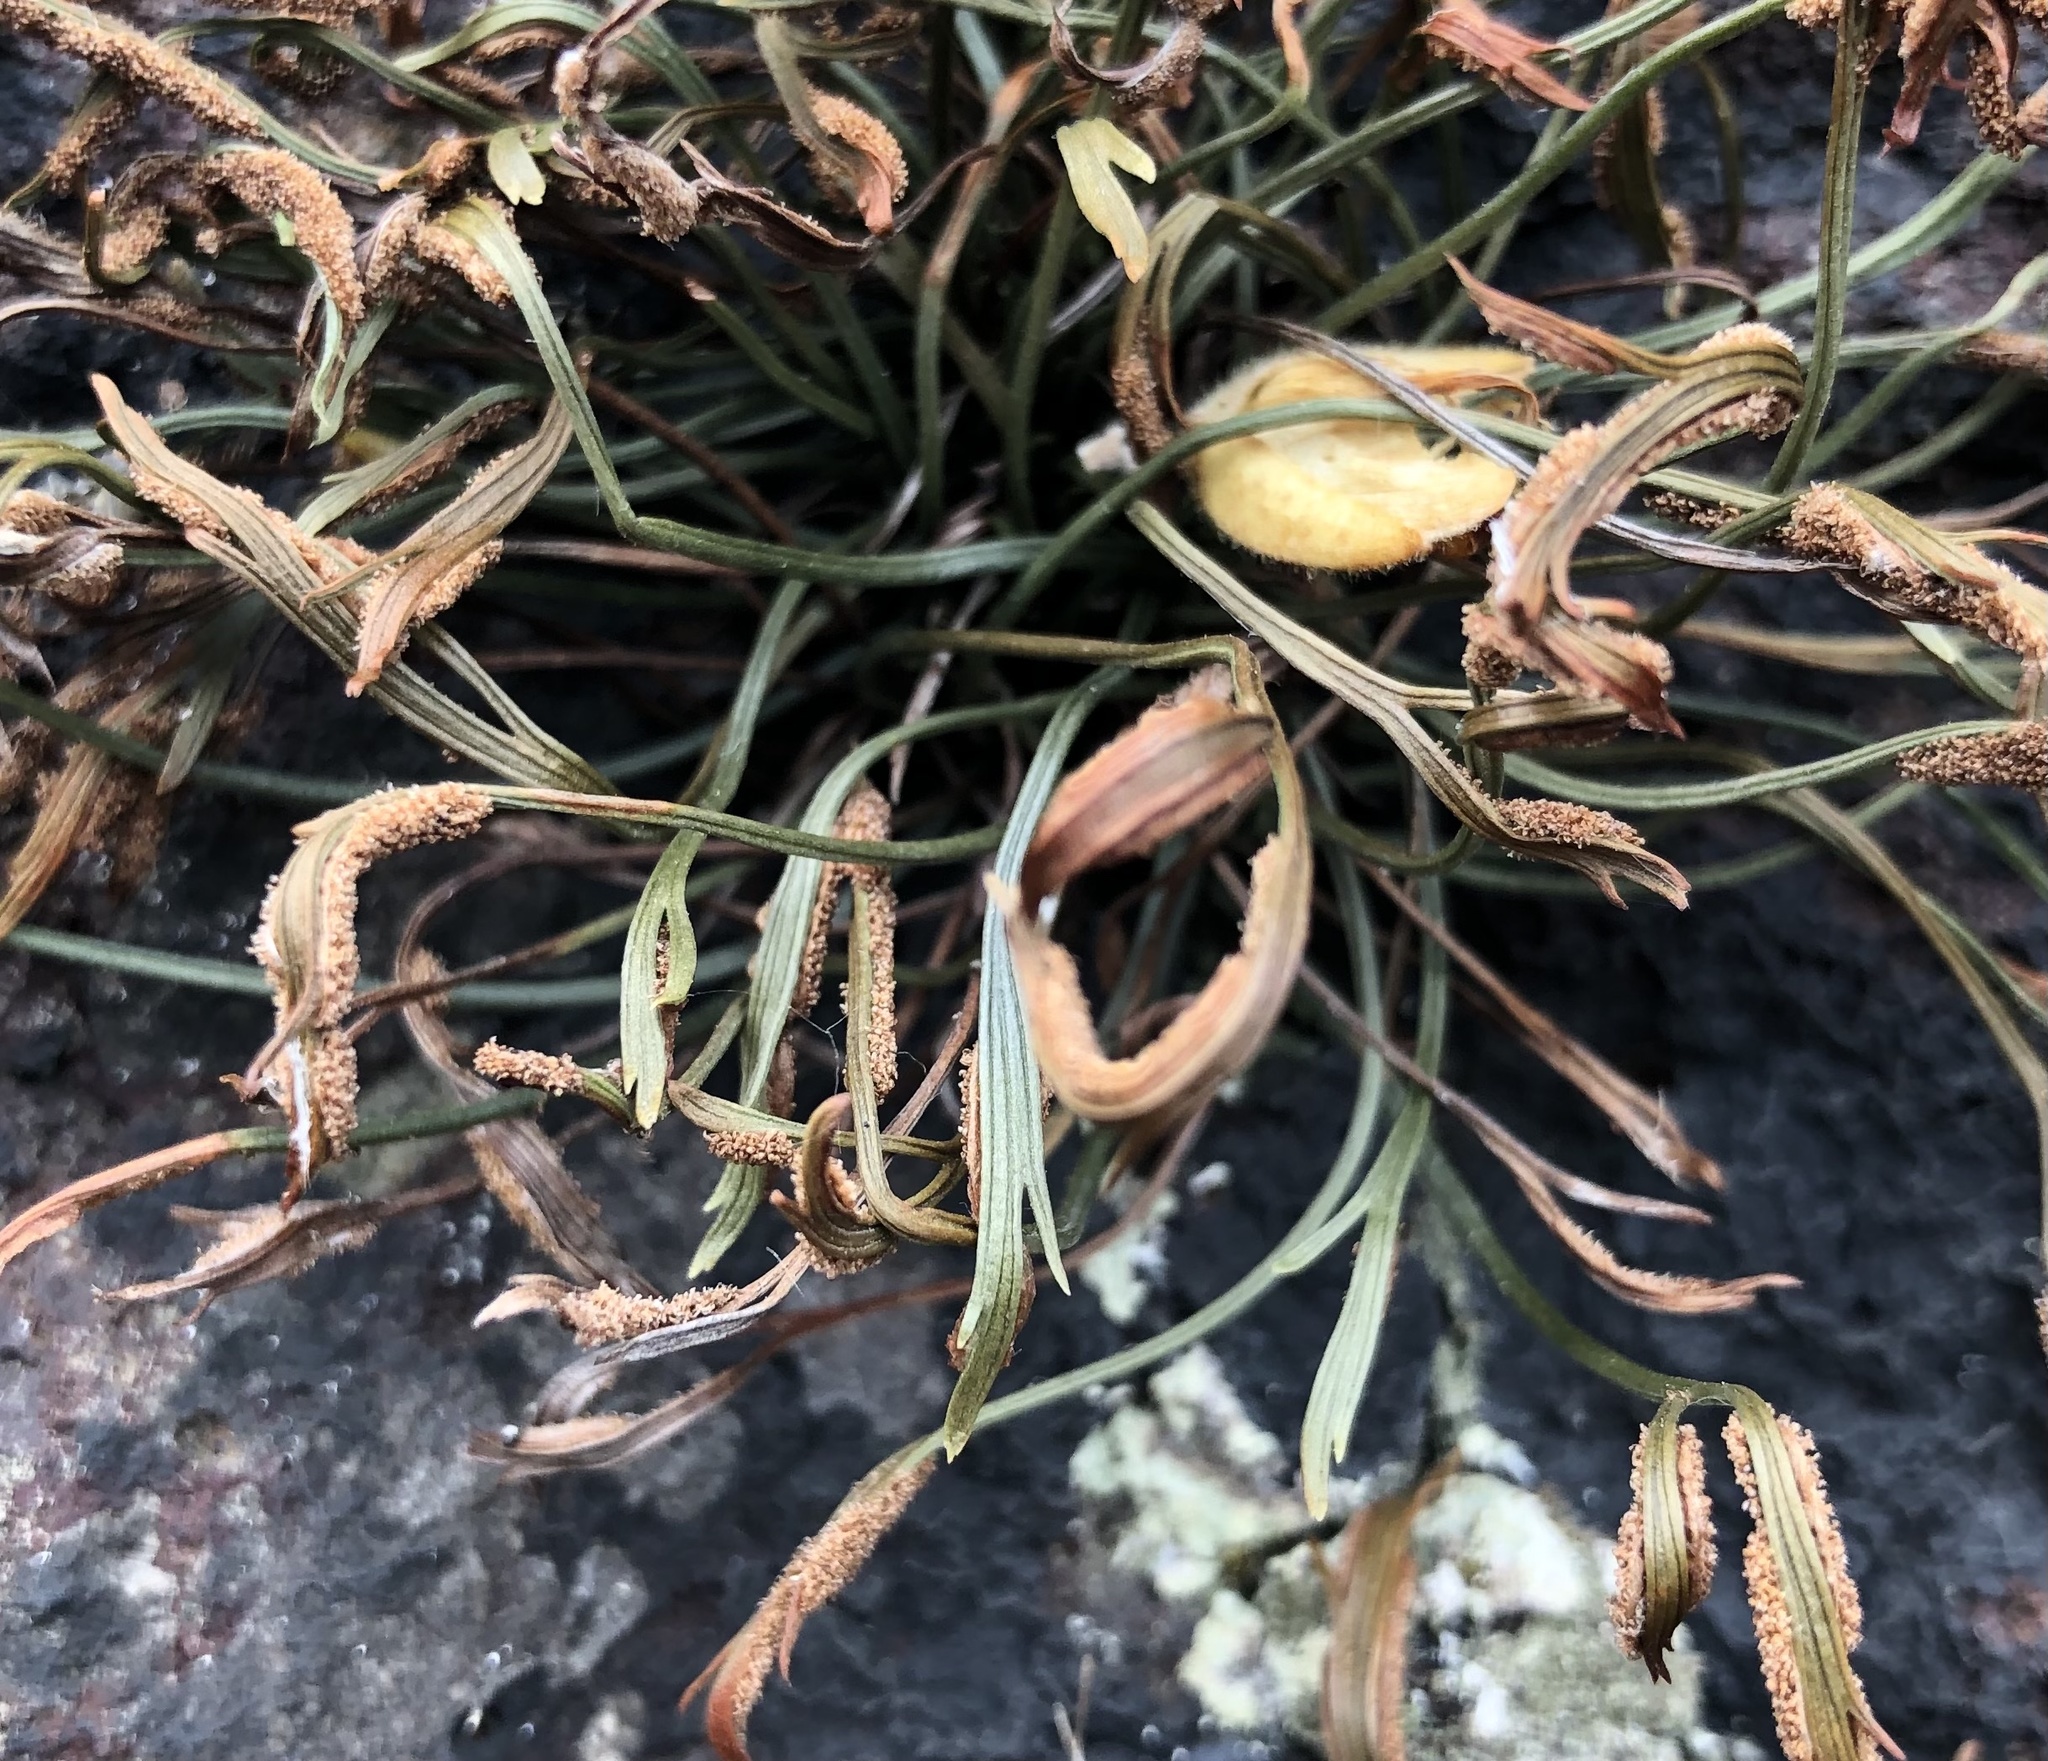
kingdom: Plantae
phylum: Tracheophyta
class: Polypodiopsida
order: Polypodiales
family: Aspleniaceae
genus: Asplenium
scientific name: Asplenium septentrionale
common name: Forked spleenwort
